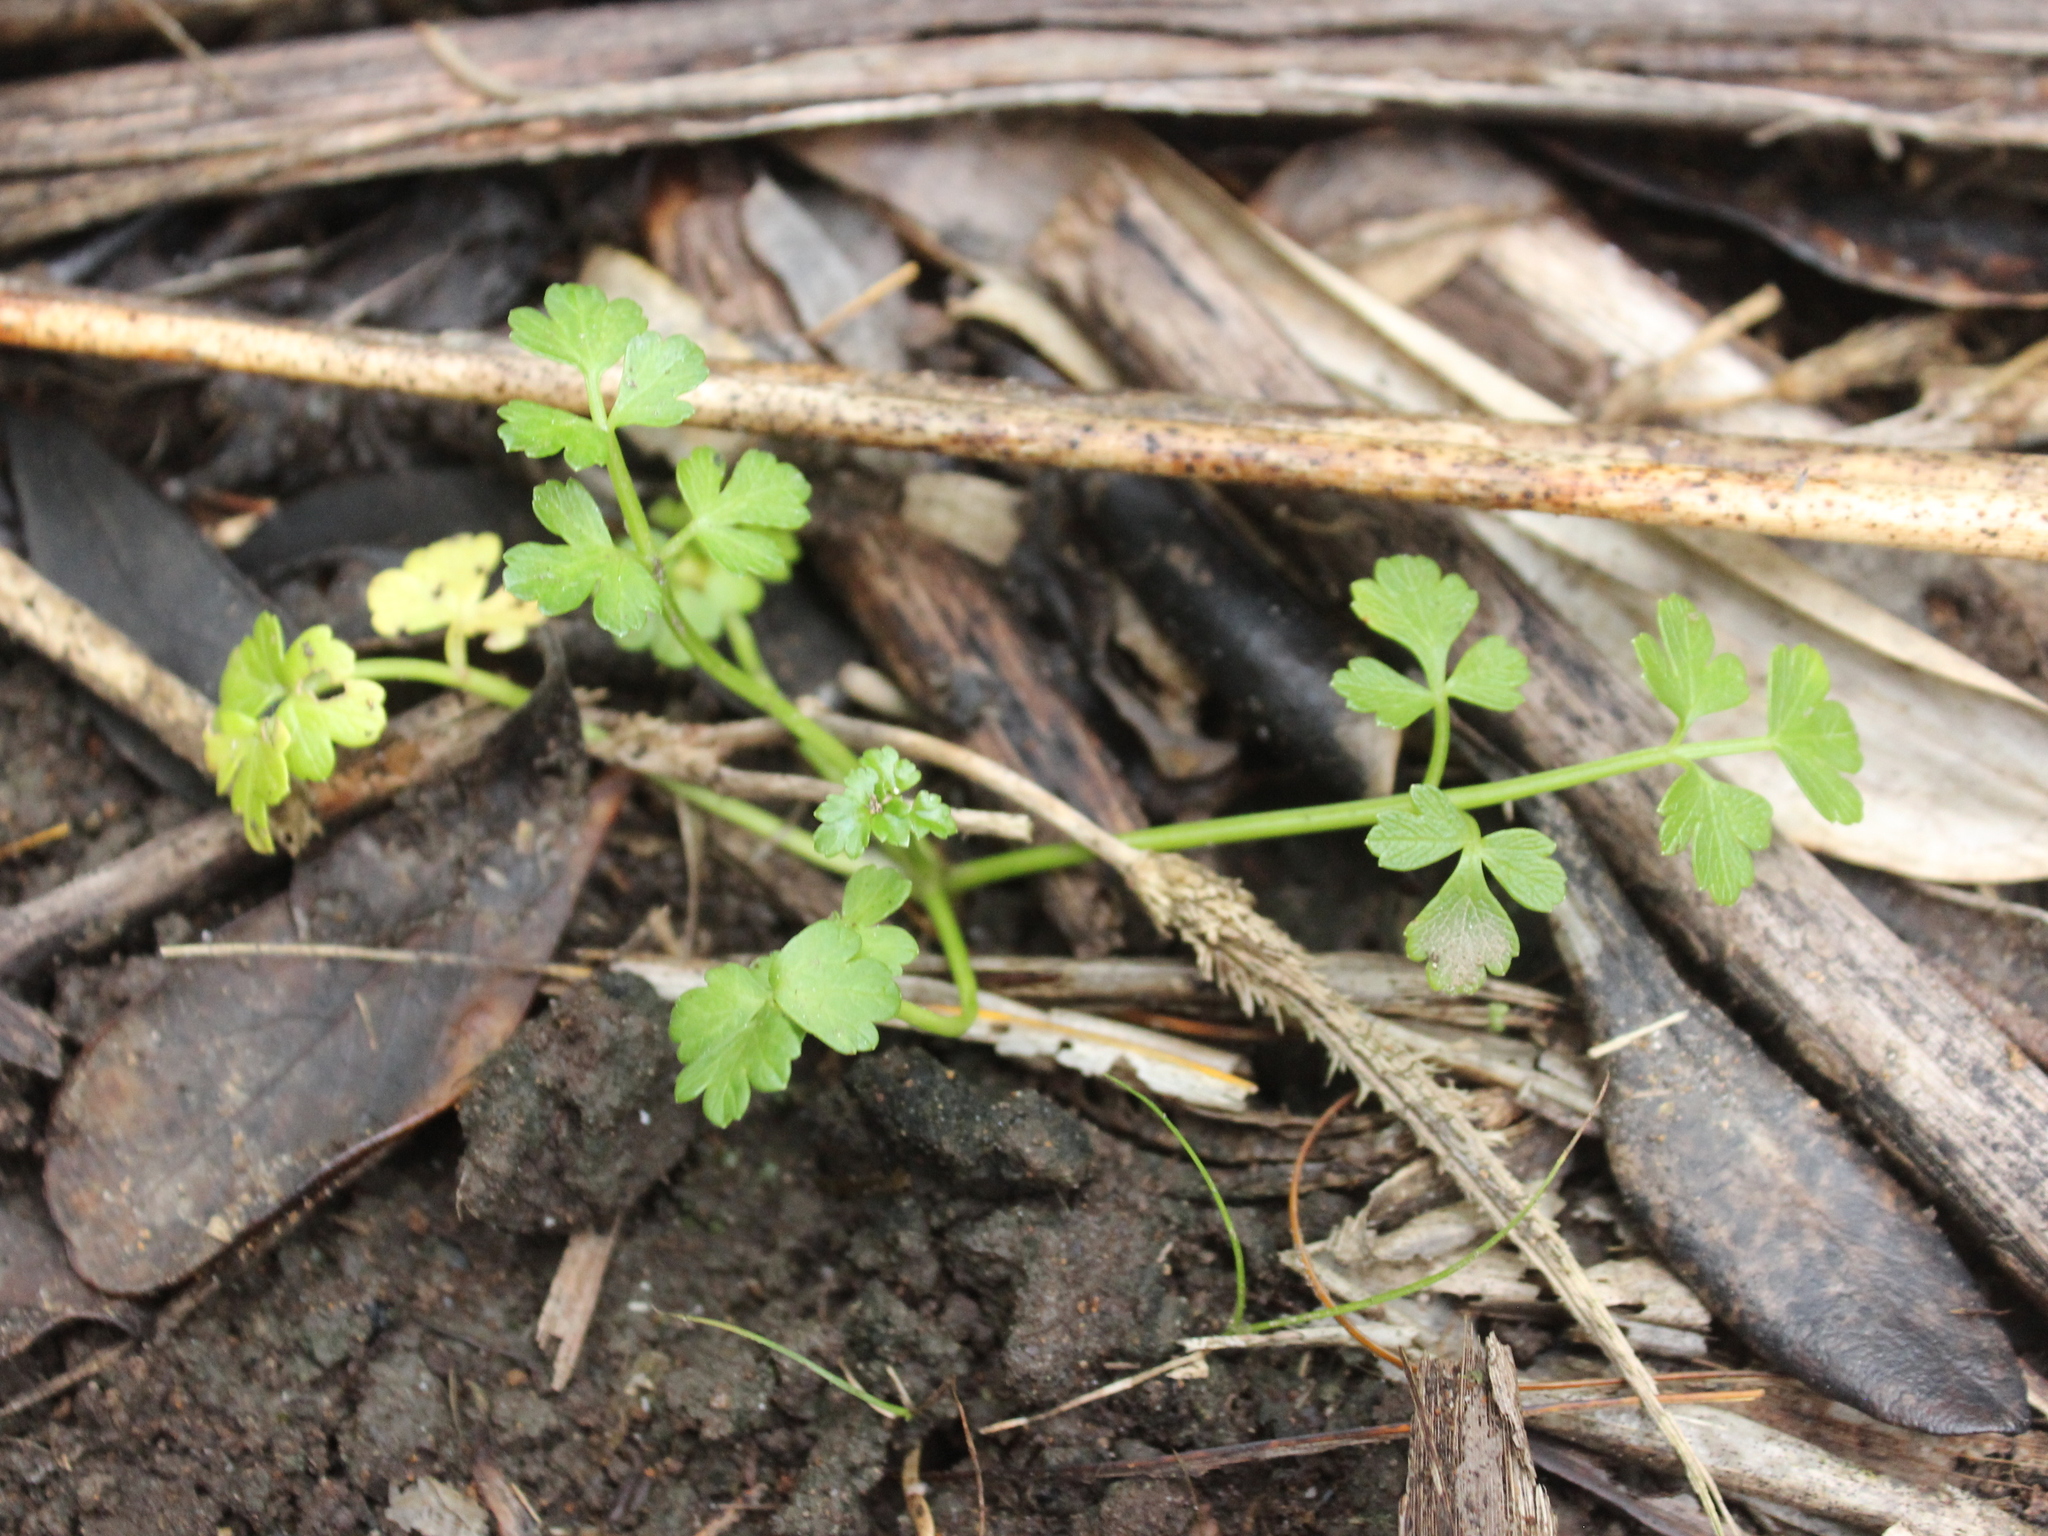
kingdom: Plantae
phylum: Tracheophyta
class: Magnoliopsida
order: Apiales
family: Apiaceae
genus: Apium
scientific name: Apium prostratum
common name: Prostrate marshwort
